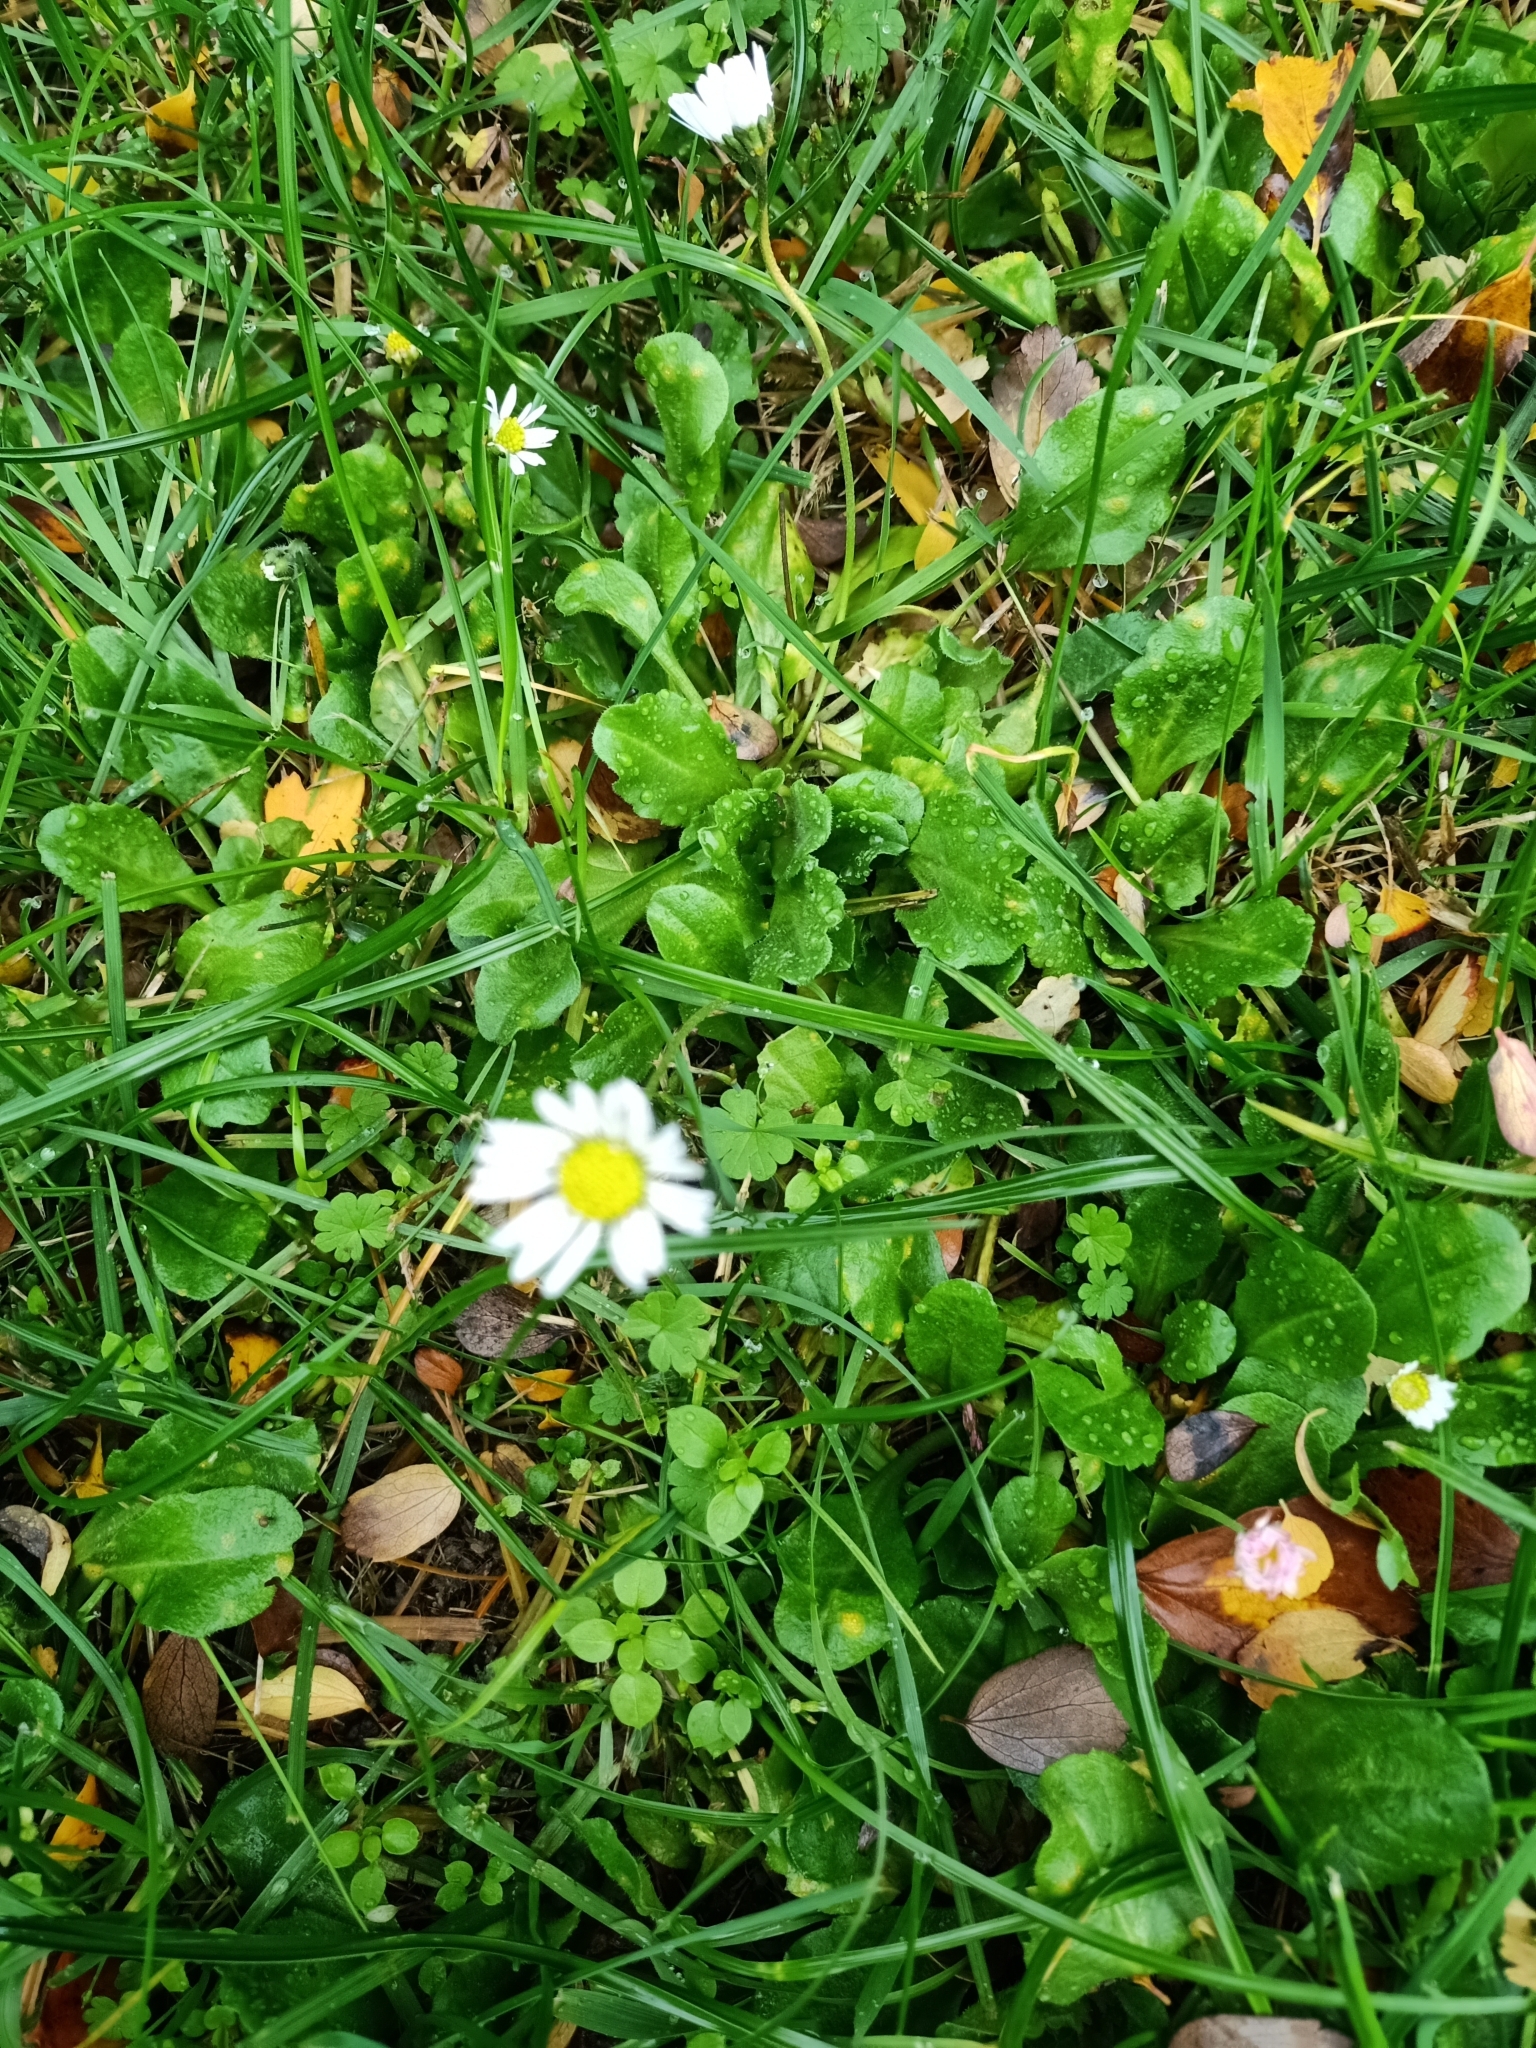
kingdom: Plantae
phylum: Tracheophyta
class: Magnoliopsida
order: Asterales
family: Asteraceae
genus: Bellis
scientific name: Bellis perennis
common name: Lawndaisy
